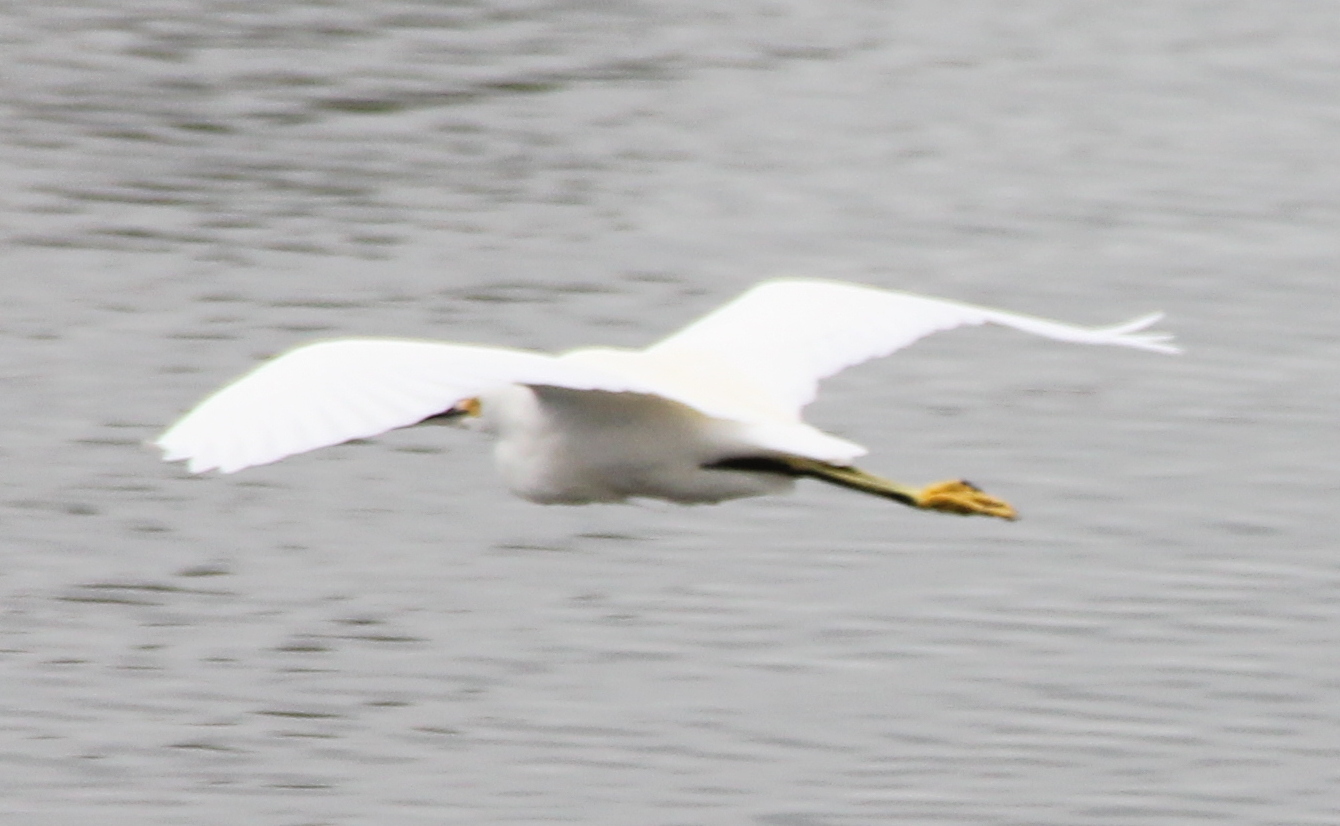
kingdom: Animalia
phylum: Chordata
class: Aves
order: Pelecaniformes
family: Ardeidae
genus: Egretta
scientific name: Egretta thula
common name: Snowy egret
